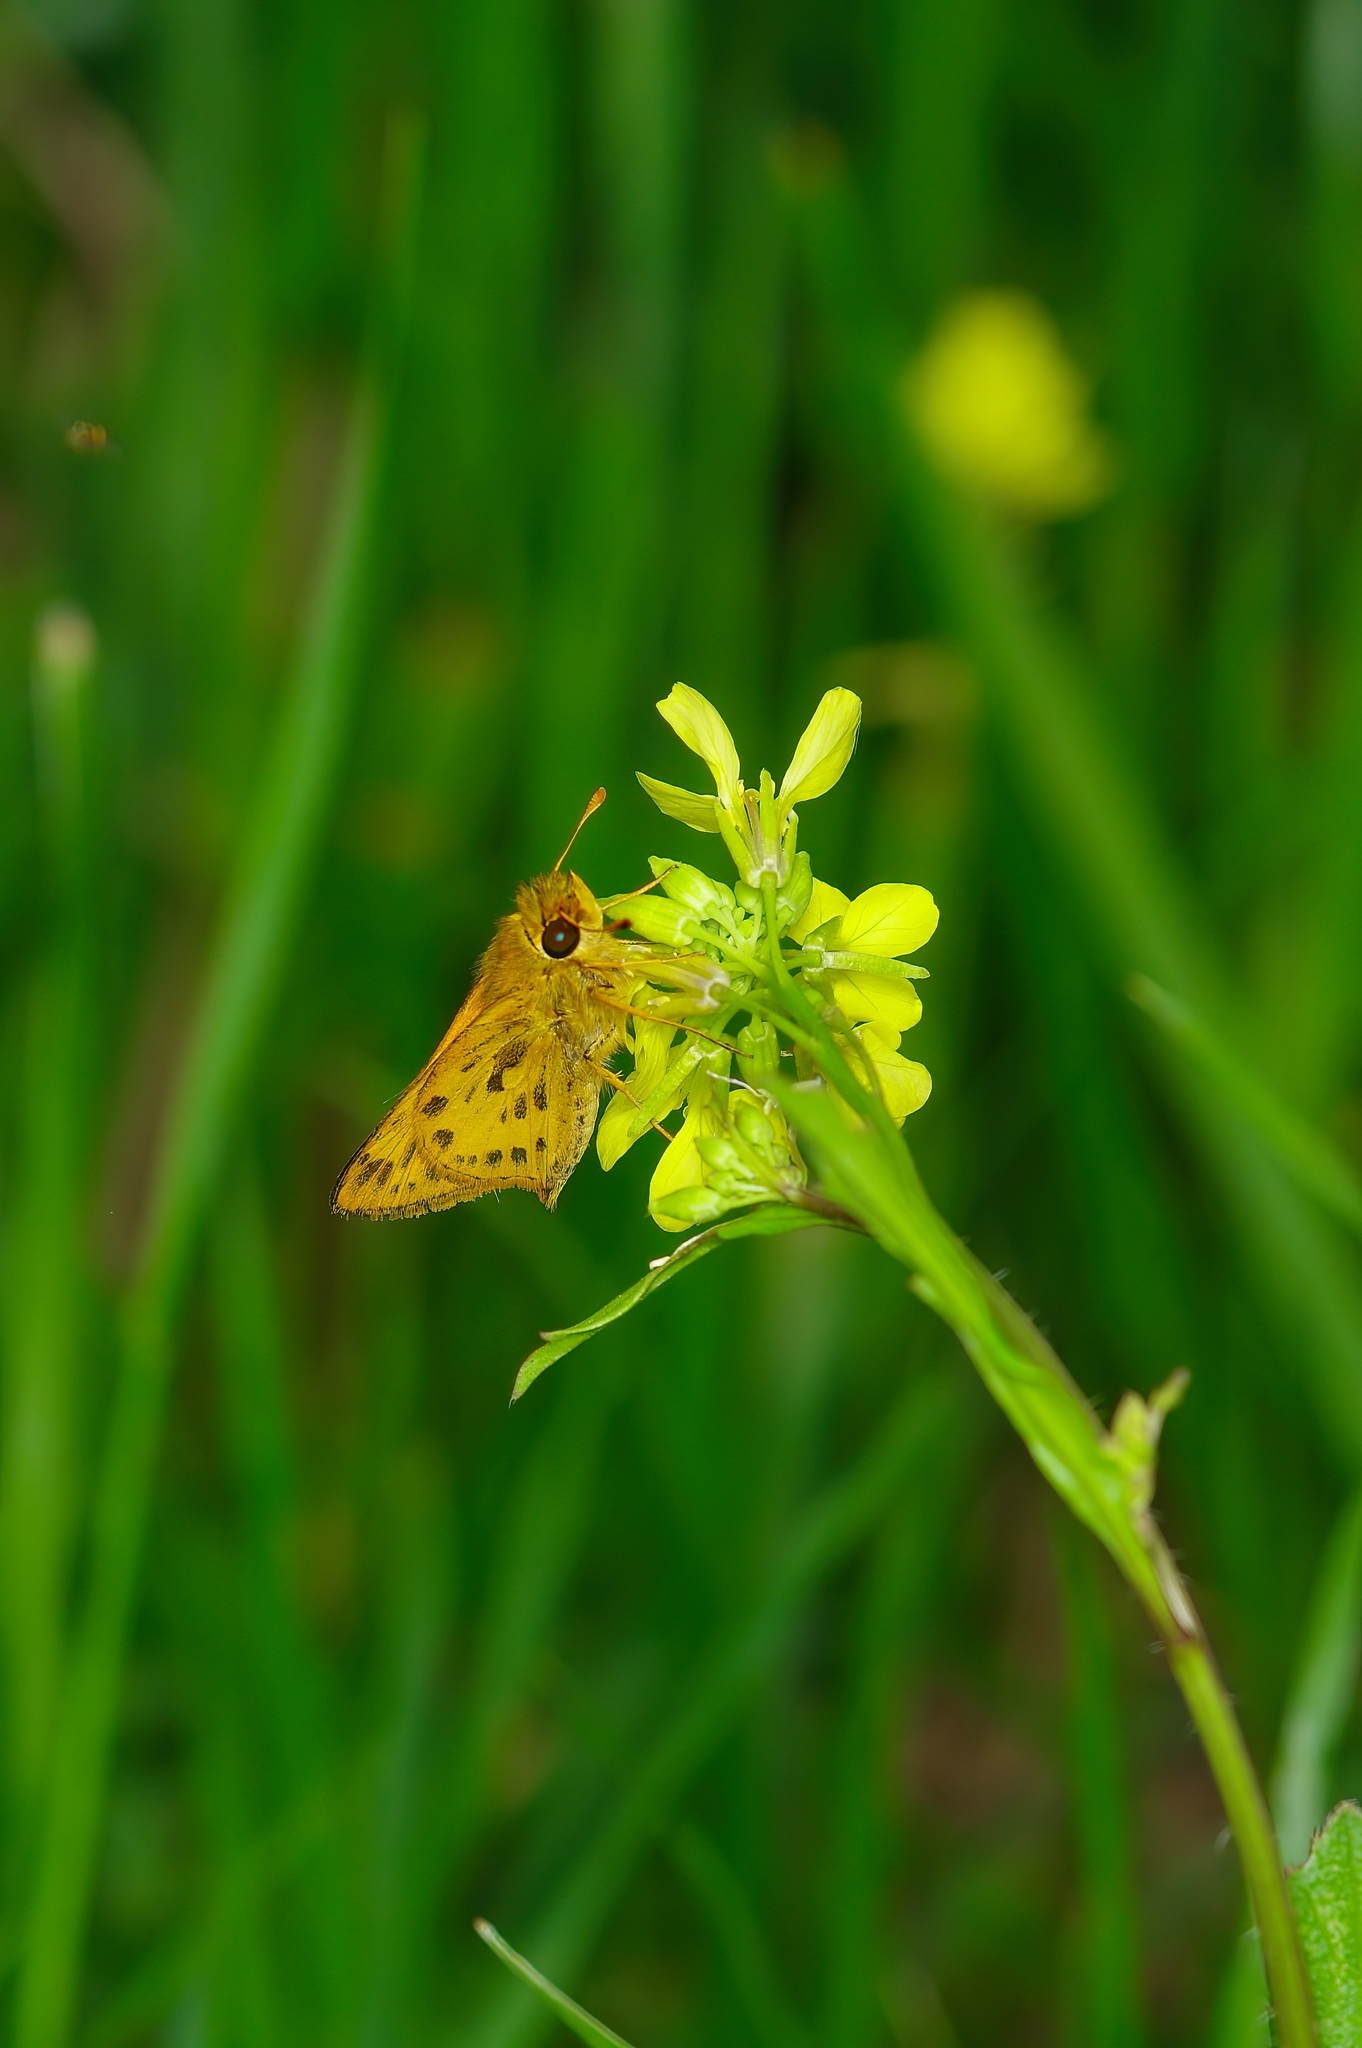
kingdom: Animalia
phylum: Arthropoda
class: Insecta
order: Lepidoptera
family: Hesperiidae
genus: Hylephila
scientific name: Hylephila phyleus
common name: Fiery skipper
